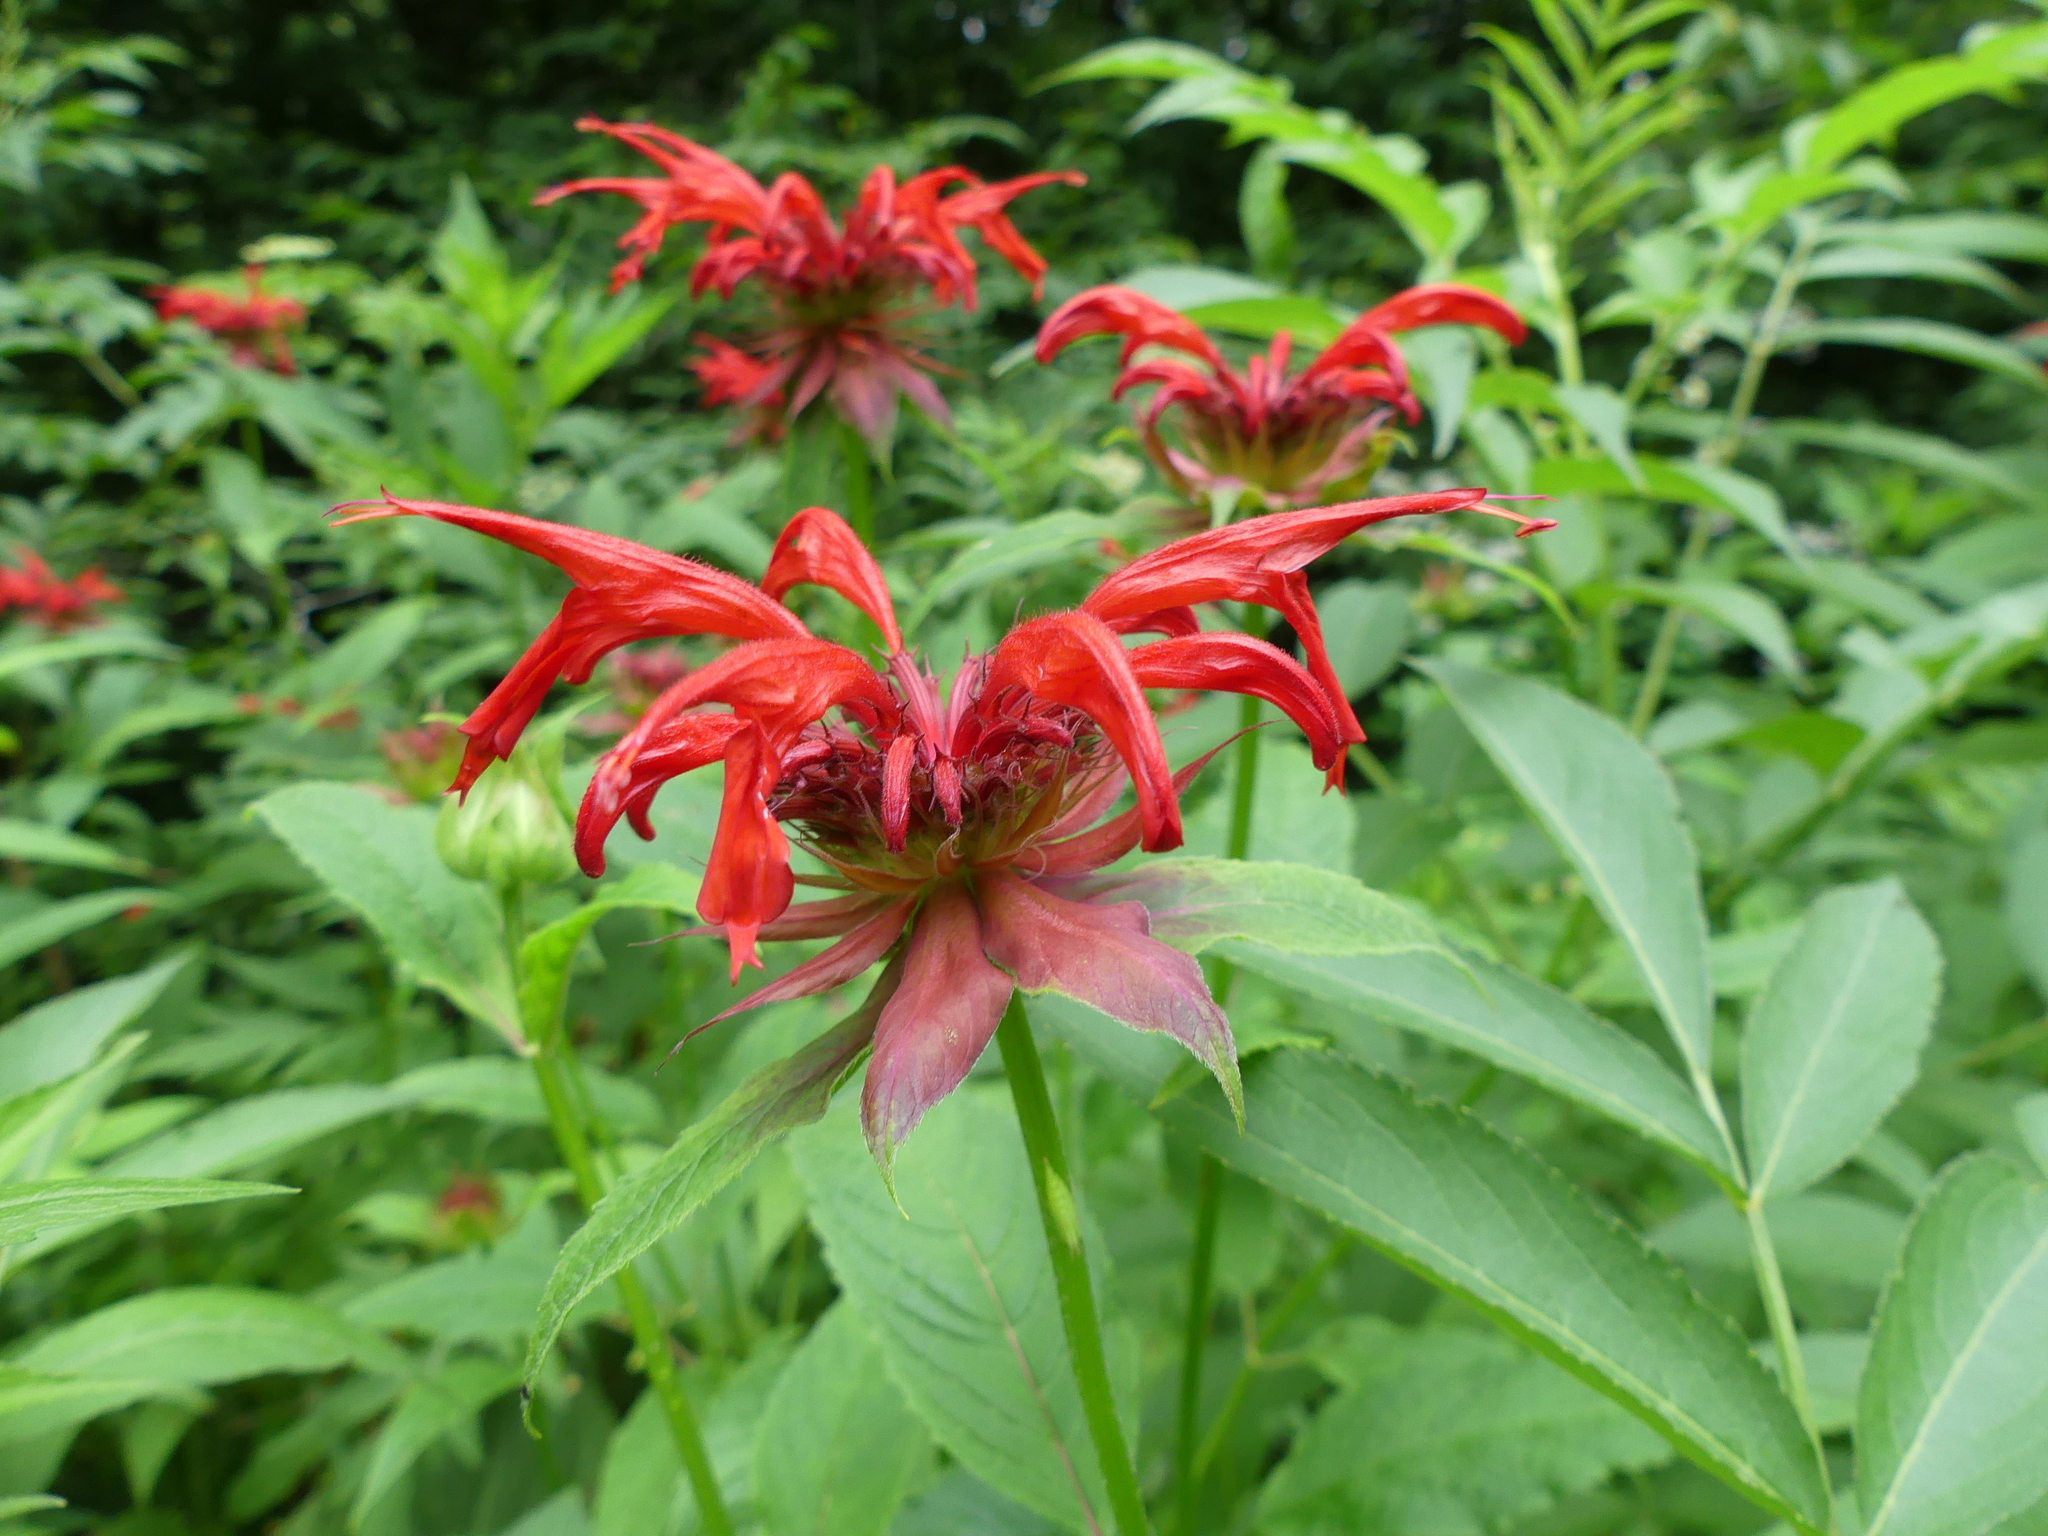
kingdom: Plantae
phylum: Tracheophyta
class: Magnoliopsida
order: Lamiales
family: Lamiaceae
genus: Monarda
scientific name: Monarda didyma
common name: Beebalm
